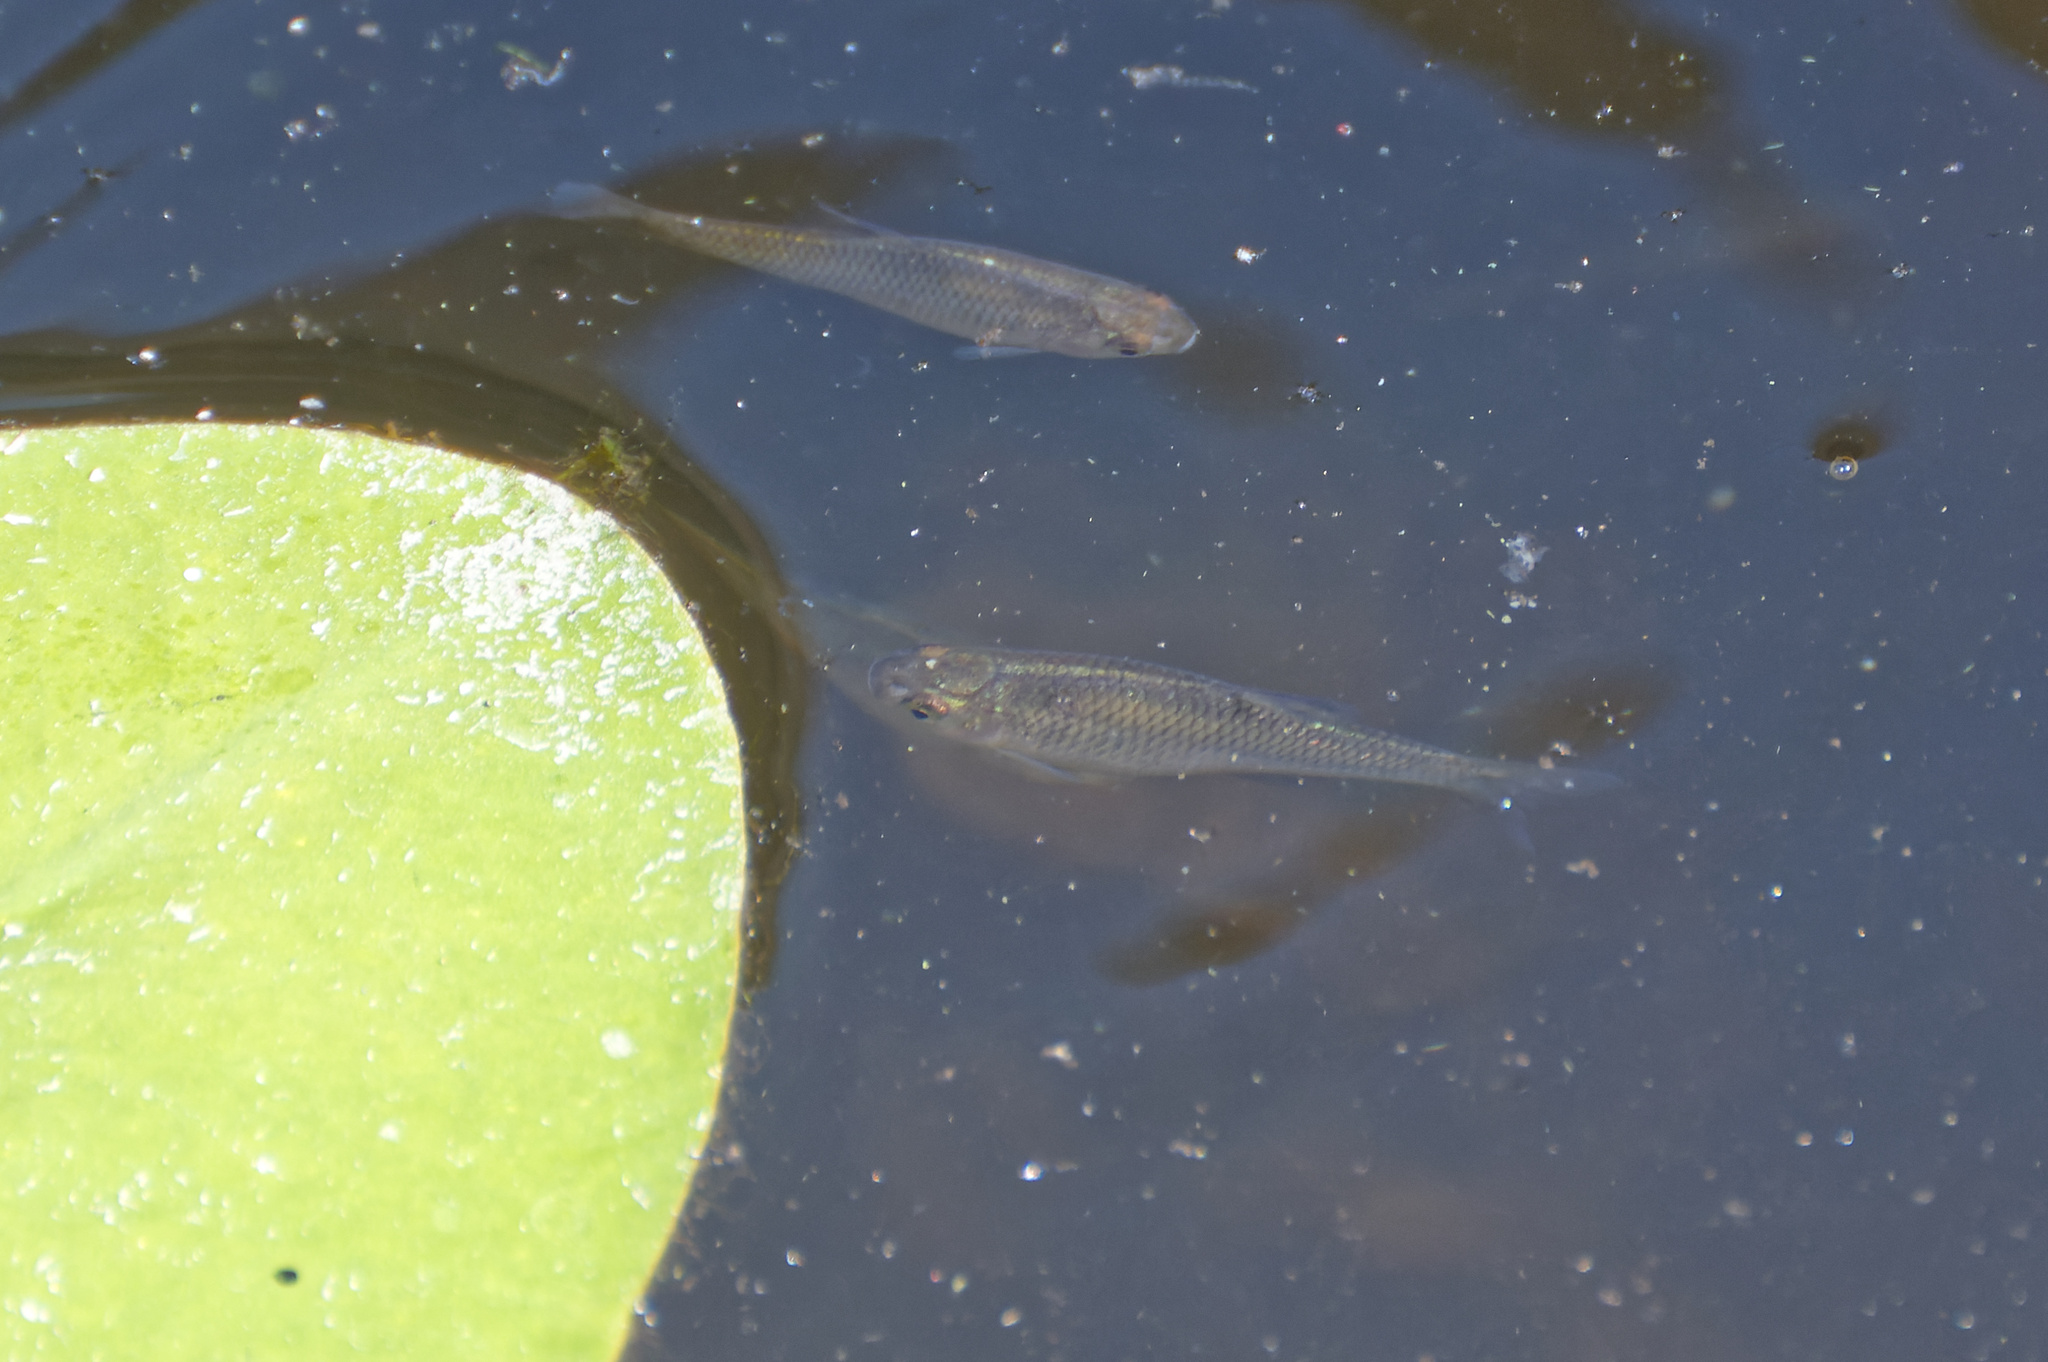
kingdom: Animalia
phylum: Chordata
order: Cypriniformes
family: Cyprinidae
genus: Rutilus
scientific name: Rutilus rutilus
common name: Roach
